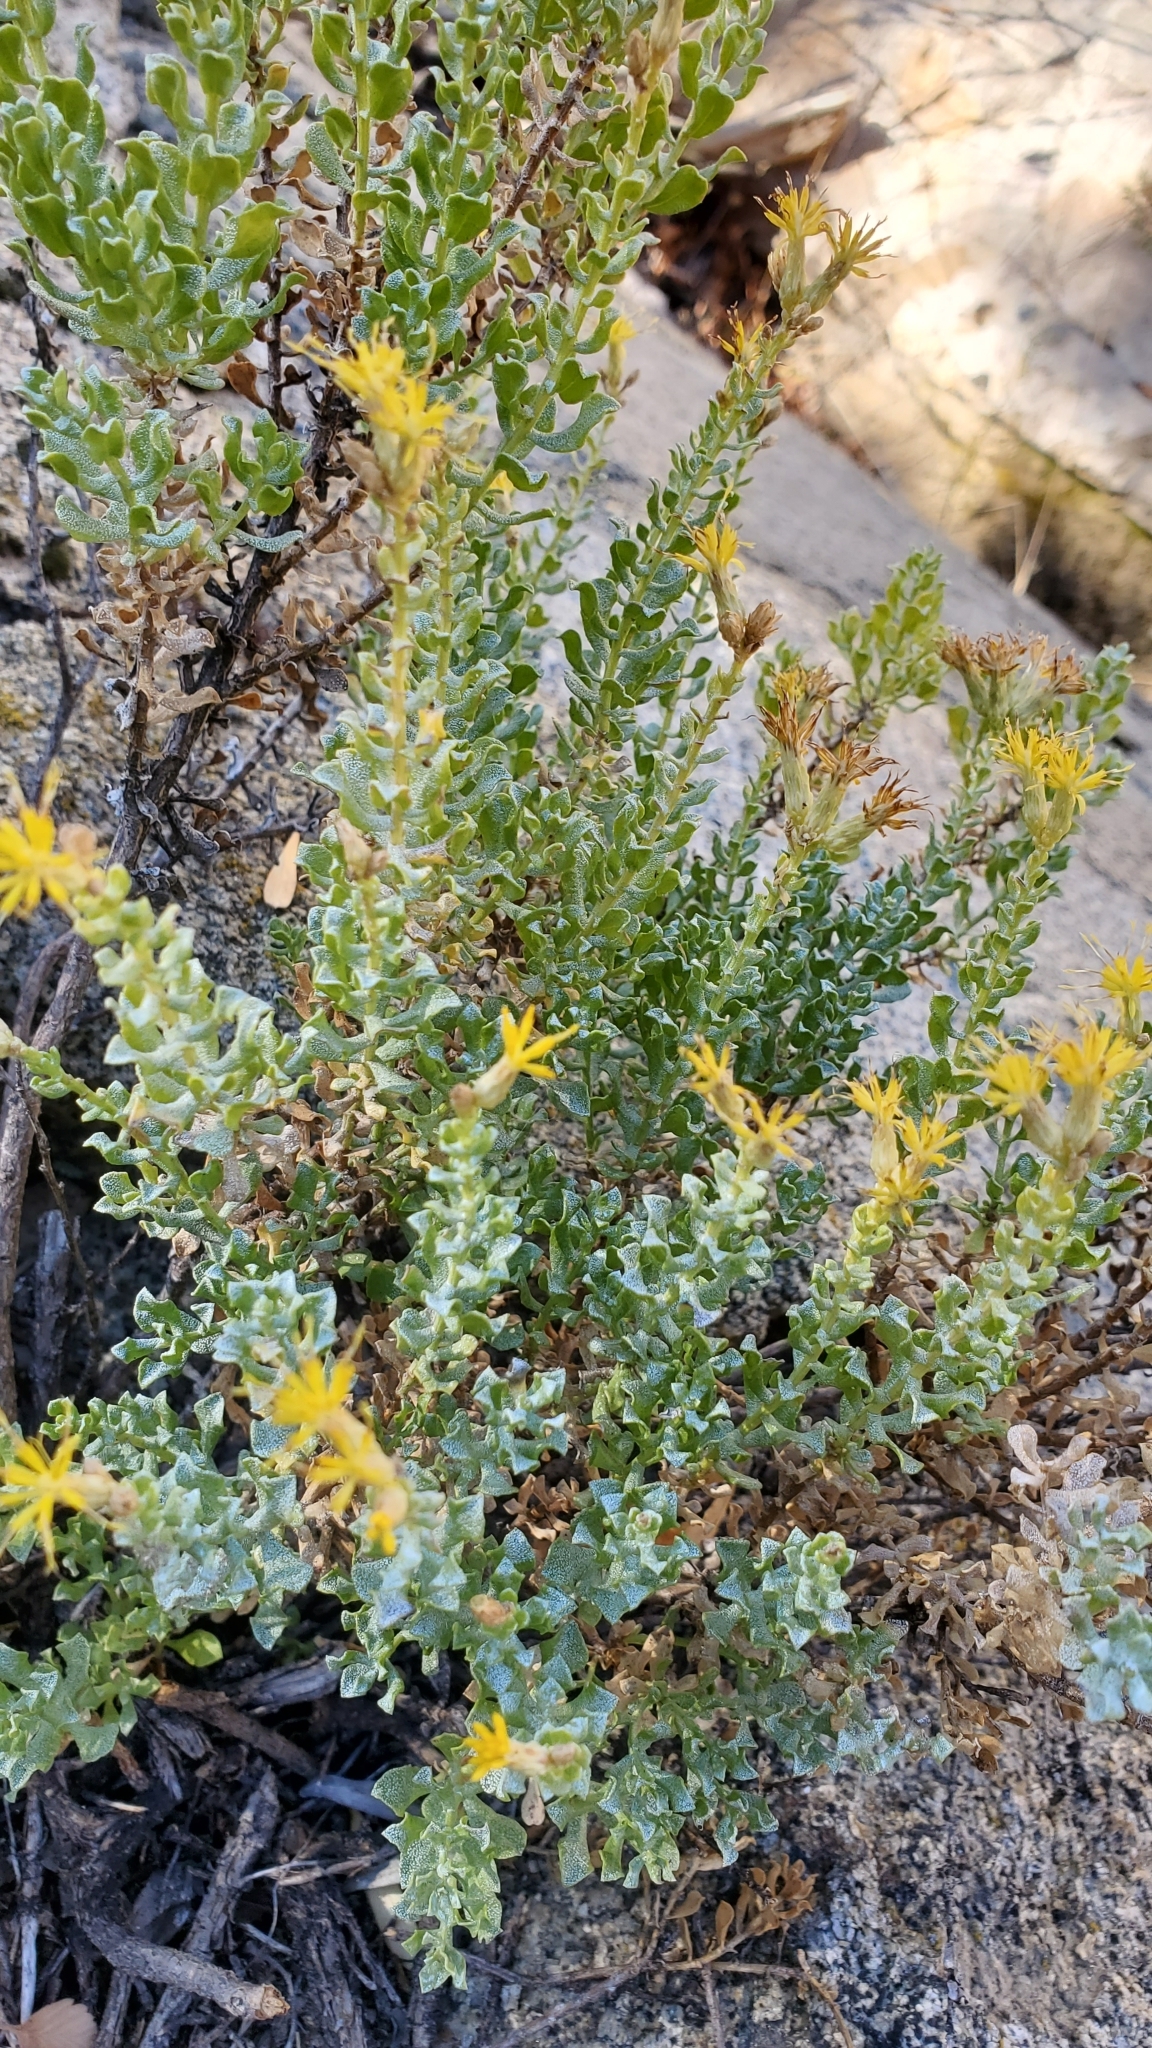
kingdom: Plantae
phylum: Tracheophyta
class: Magnoliopsida
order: Asterales
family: Asteraceae
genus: Ericameria
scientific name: Ericameria cuneata
